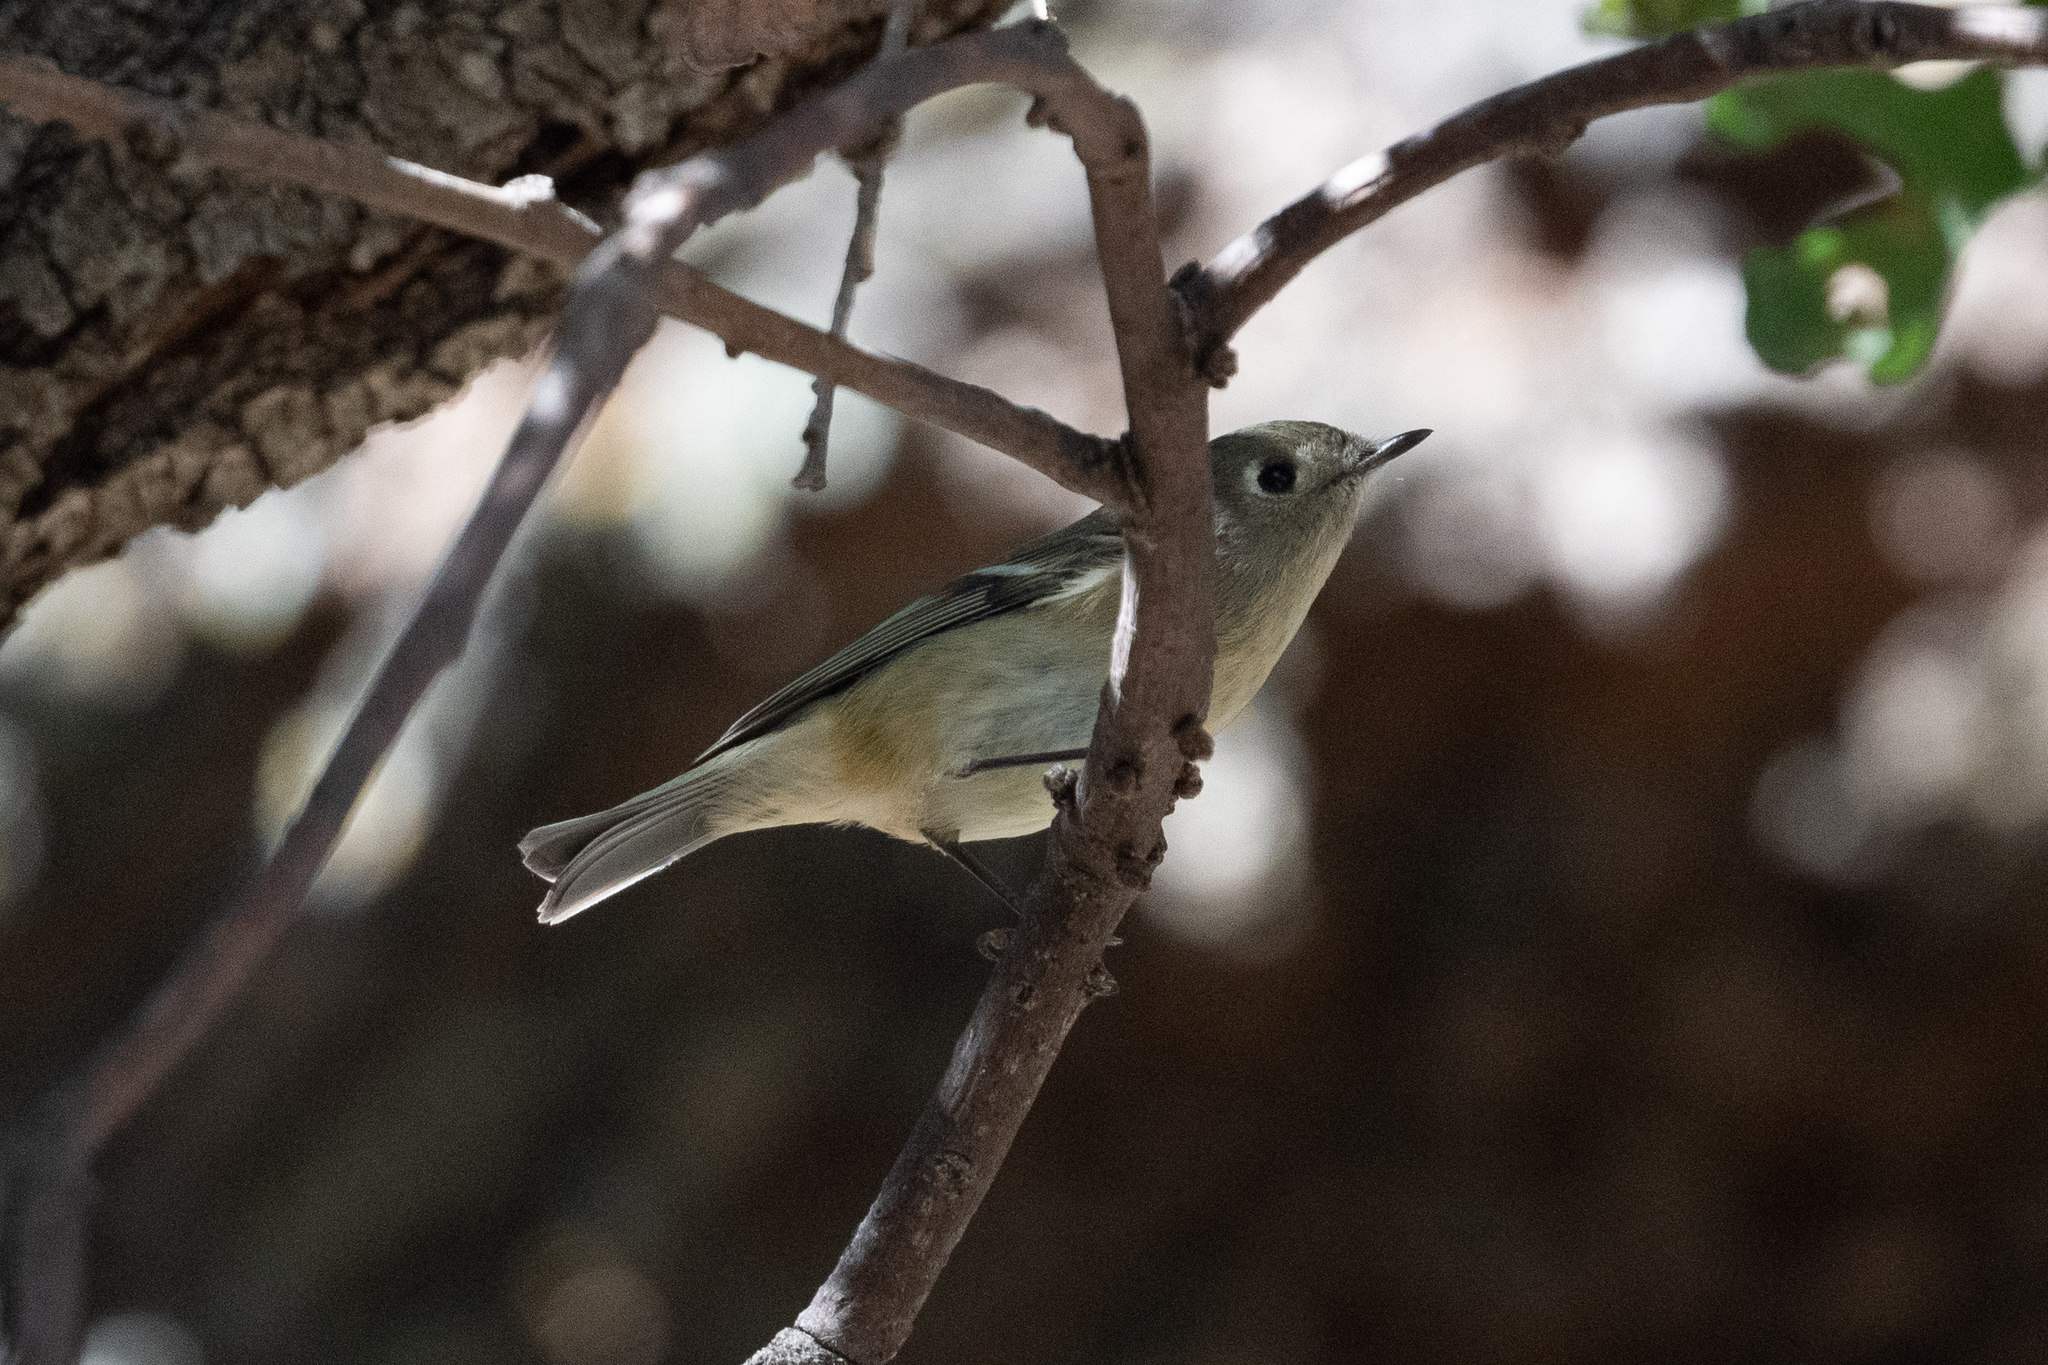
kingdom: Animalia
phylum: Chordata
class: Aves
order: Passeriformes
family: Regulidae
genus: Regulus
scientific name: Regulus calendula
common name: Ruby-crowned kinglet
